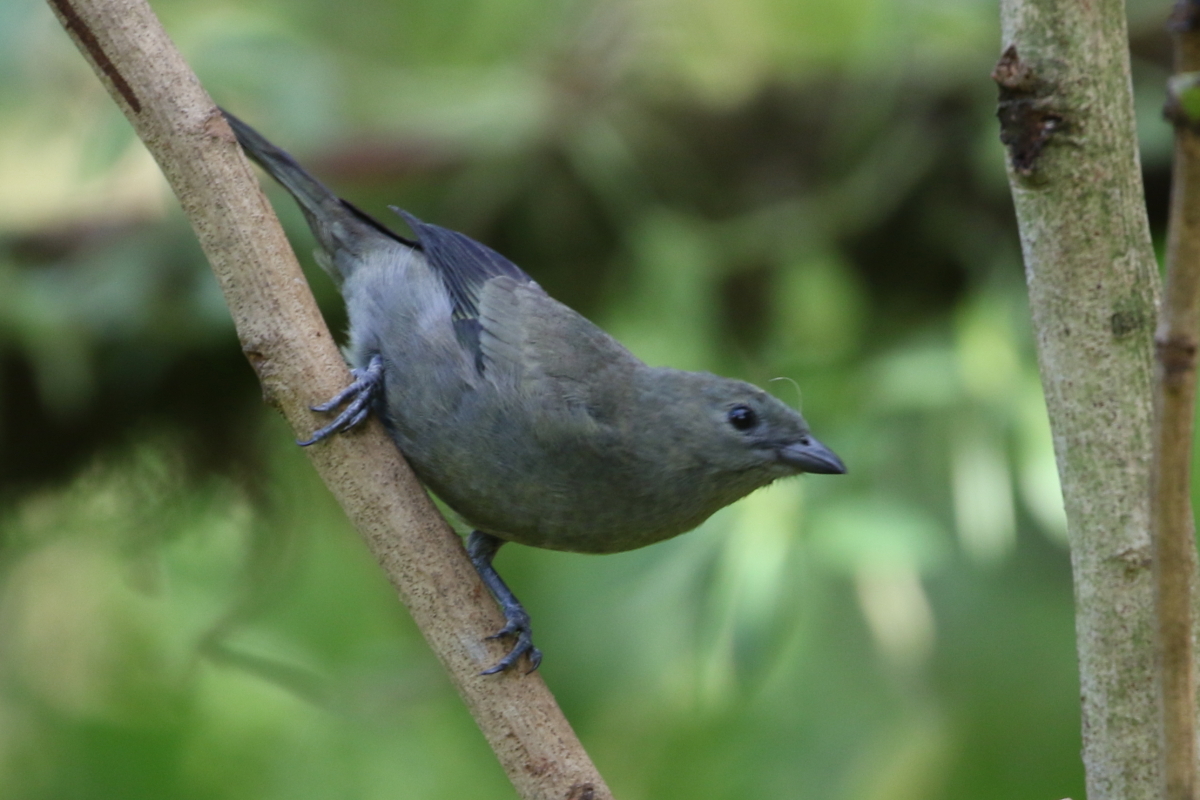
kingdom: Animalia
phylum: Chordata
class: Aves
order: Passeriformes
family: Thraupidae
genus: Thraupis
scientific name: Thraupis palmarum
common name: Palm tanager
